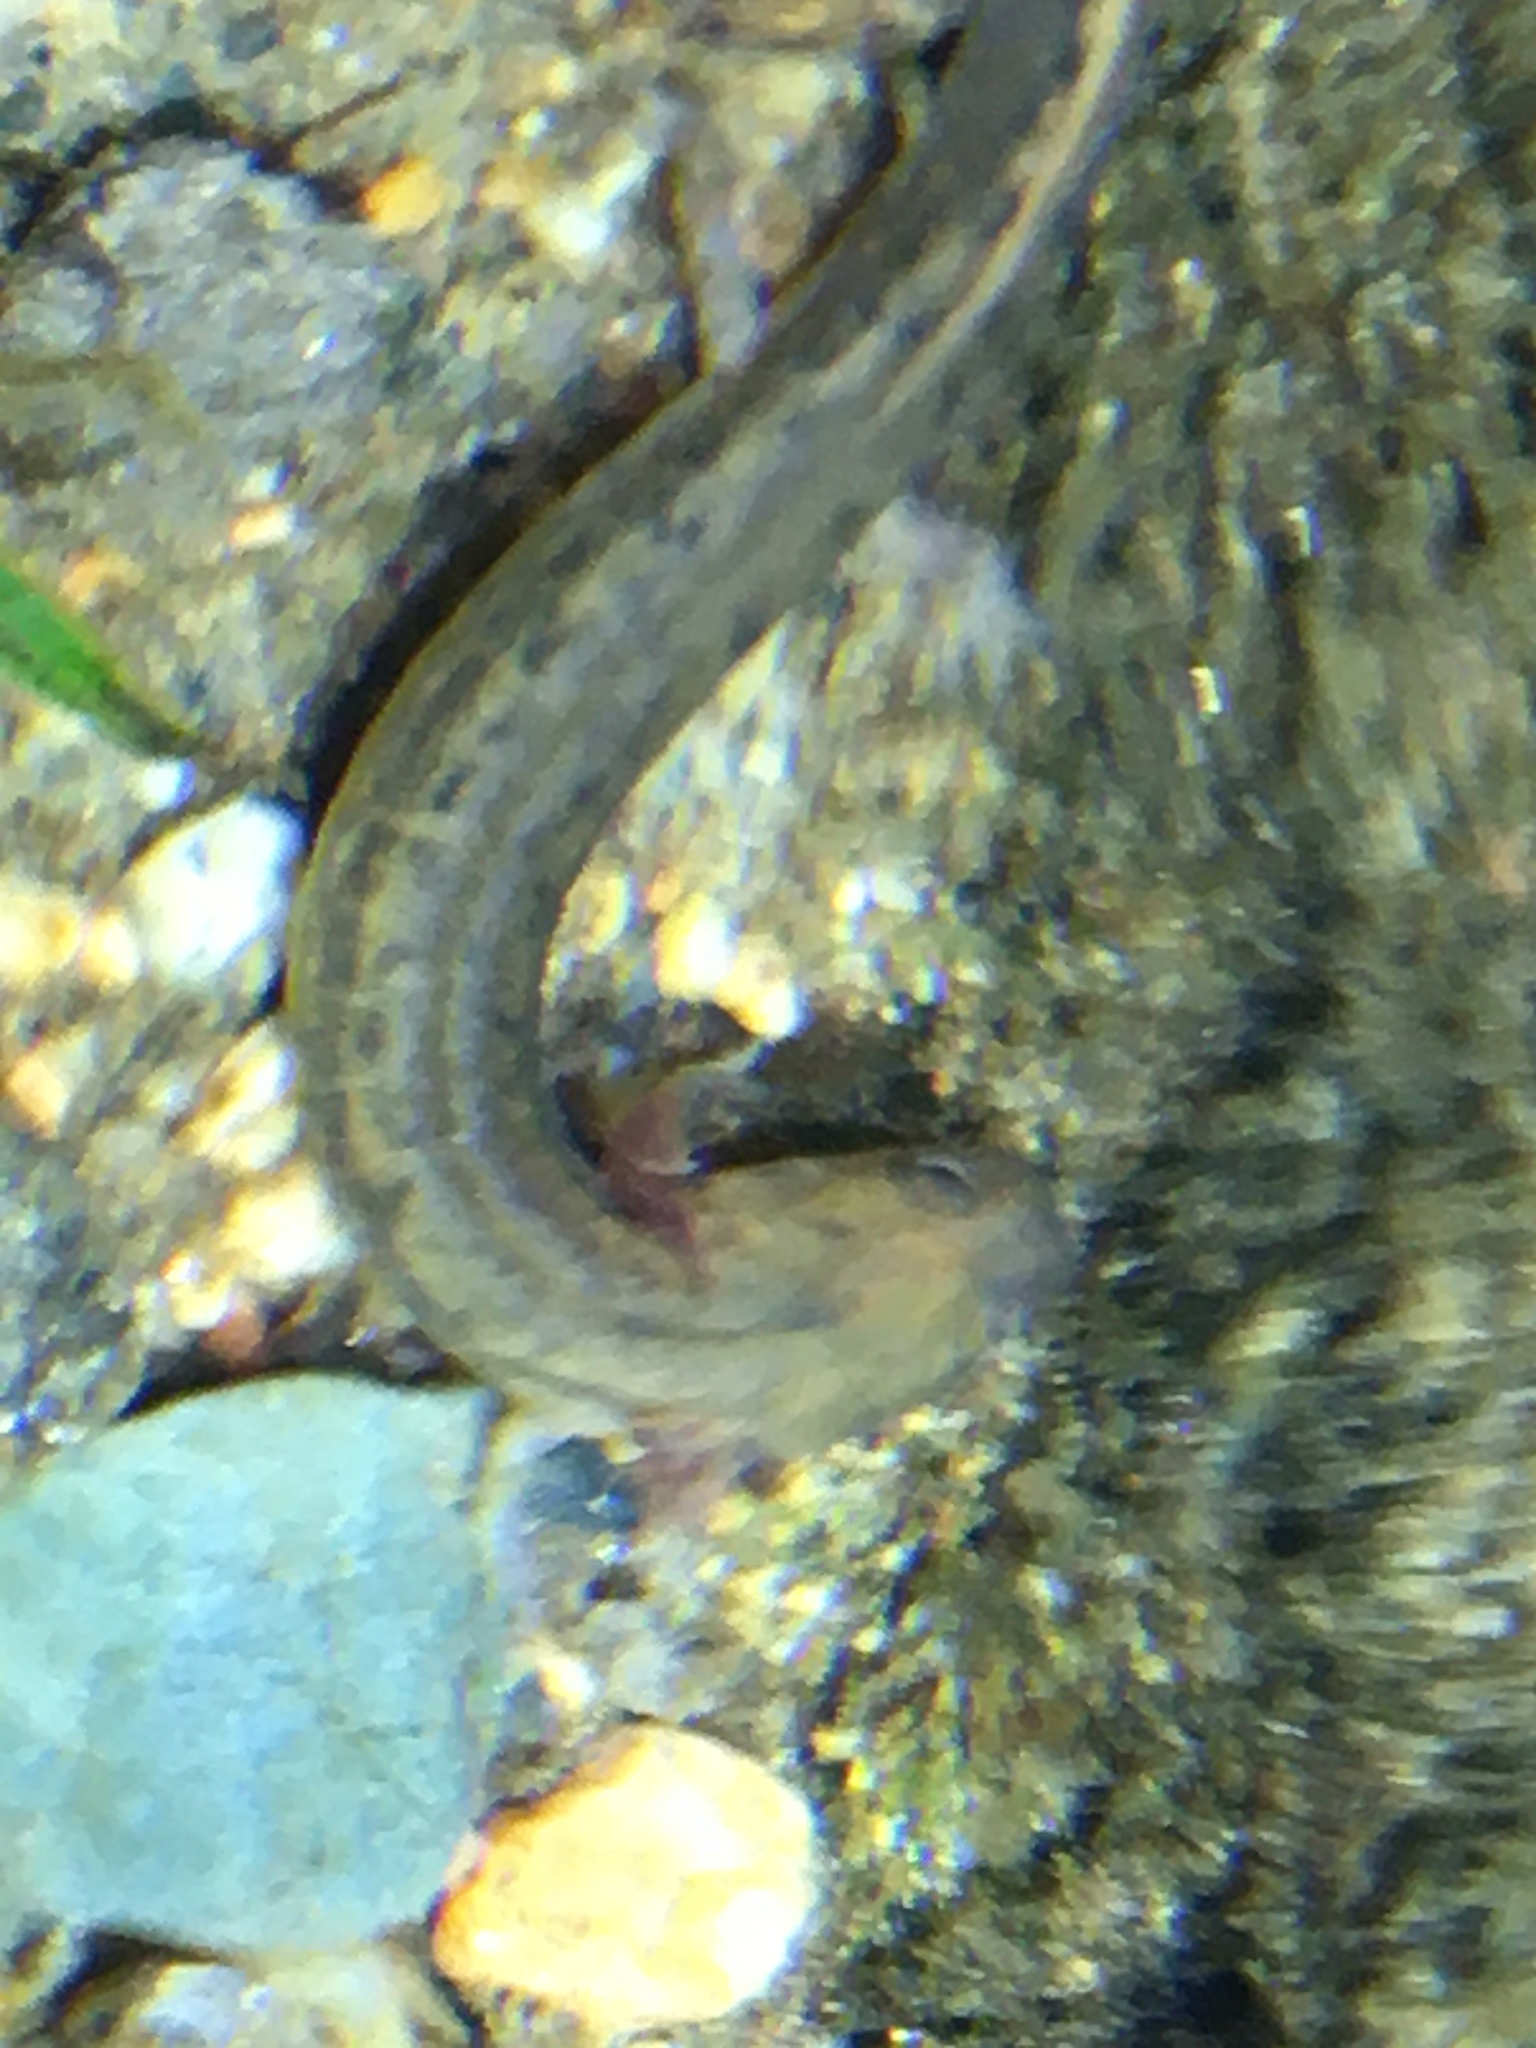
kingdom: Animalia
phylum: Chordata
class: Amphibia
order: Caudata
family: Plethodontidae
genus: Eurycea
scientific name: Eurycea bislineata
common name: Northern two-lined salamander
